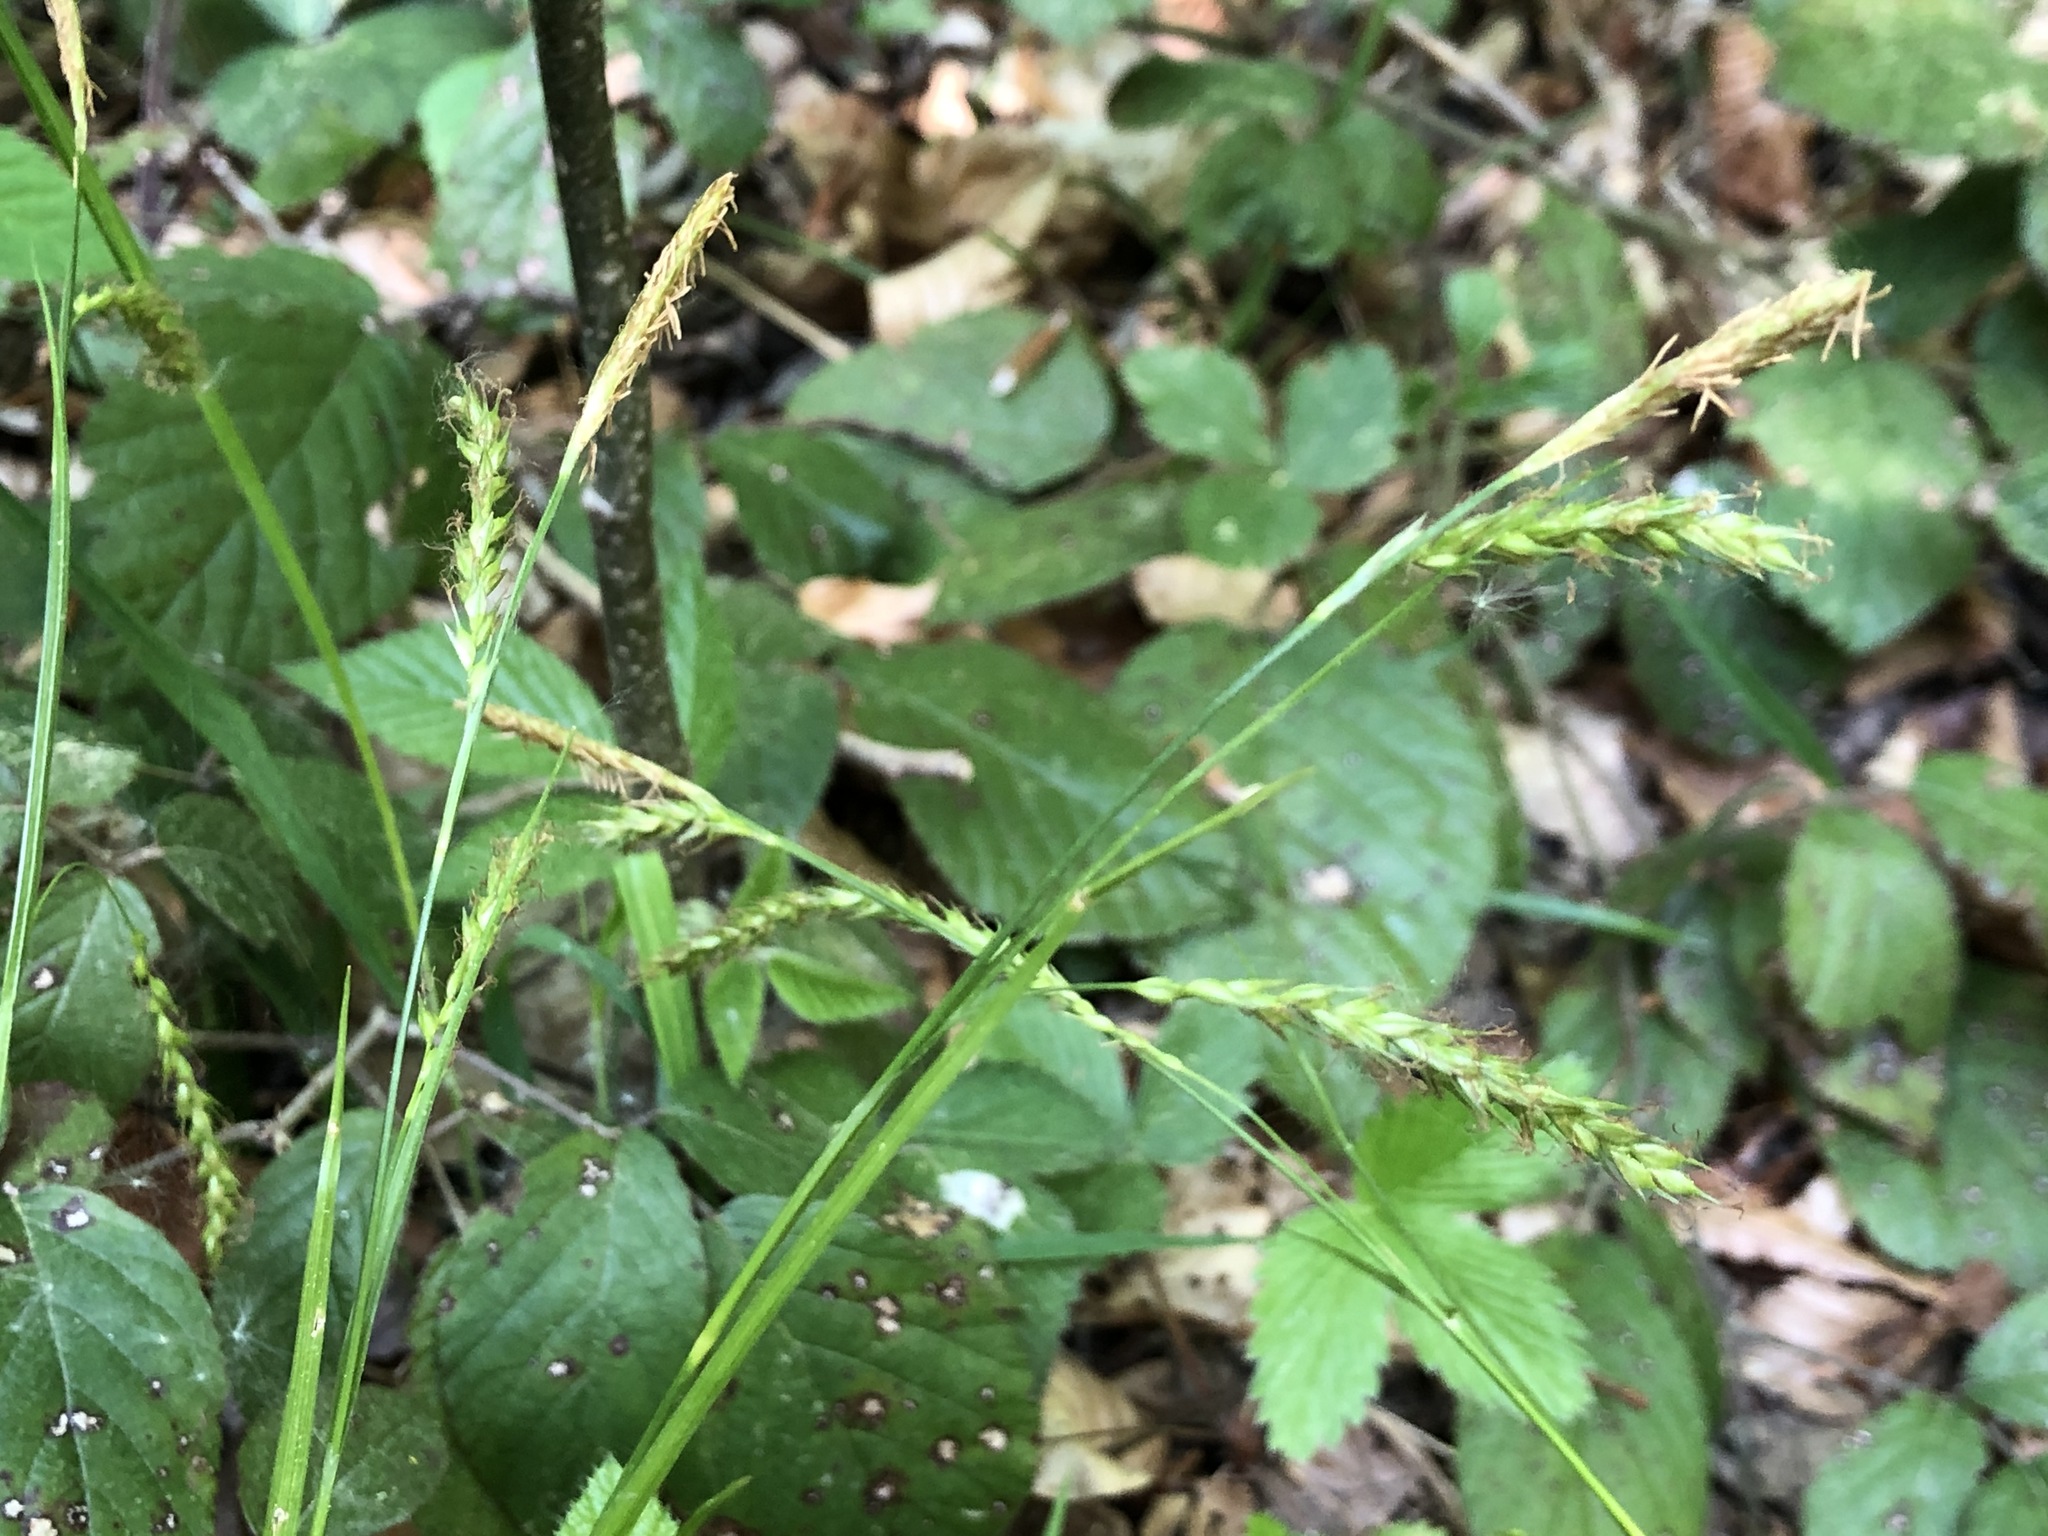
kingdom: Plantae
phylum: Tracheophyta
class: Liliopsida
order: Poales
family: Cyperaceae
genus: Carex
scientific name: Carex sylvatica
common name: Wood-sedge
